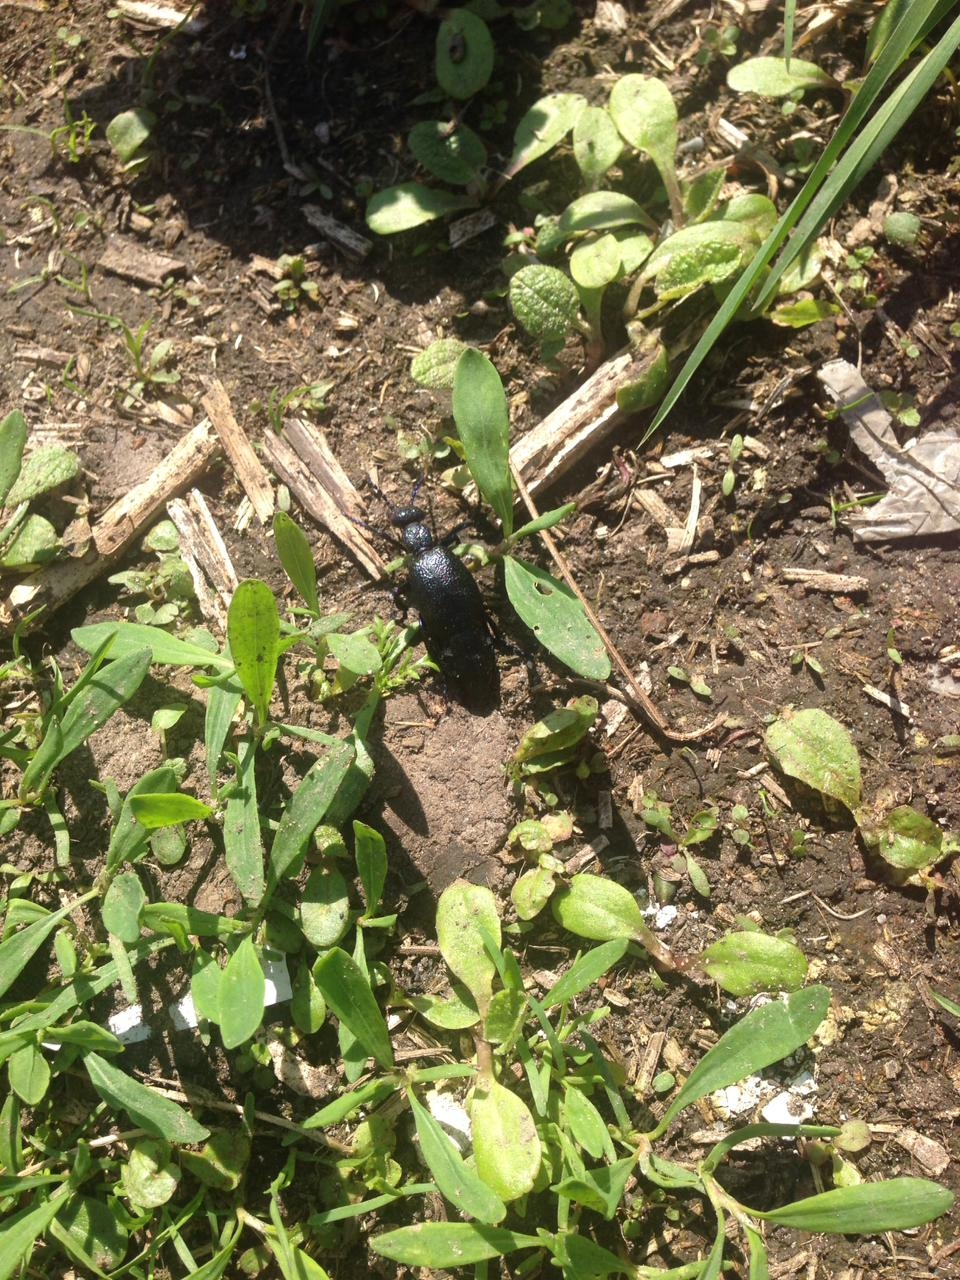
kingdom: Animalia
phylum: Arthropoda
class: Insecta
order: Coleoptera
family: Meloidae
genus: Meloe
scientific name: Meloe proscarabaeus
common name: Black oil-beetle
